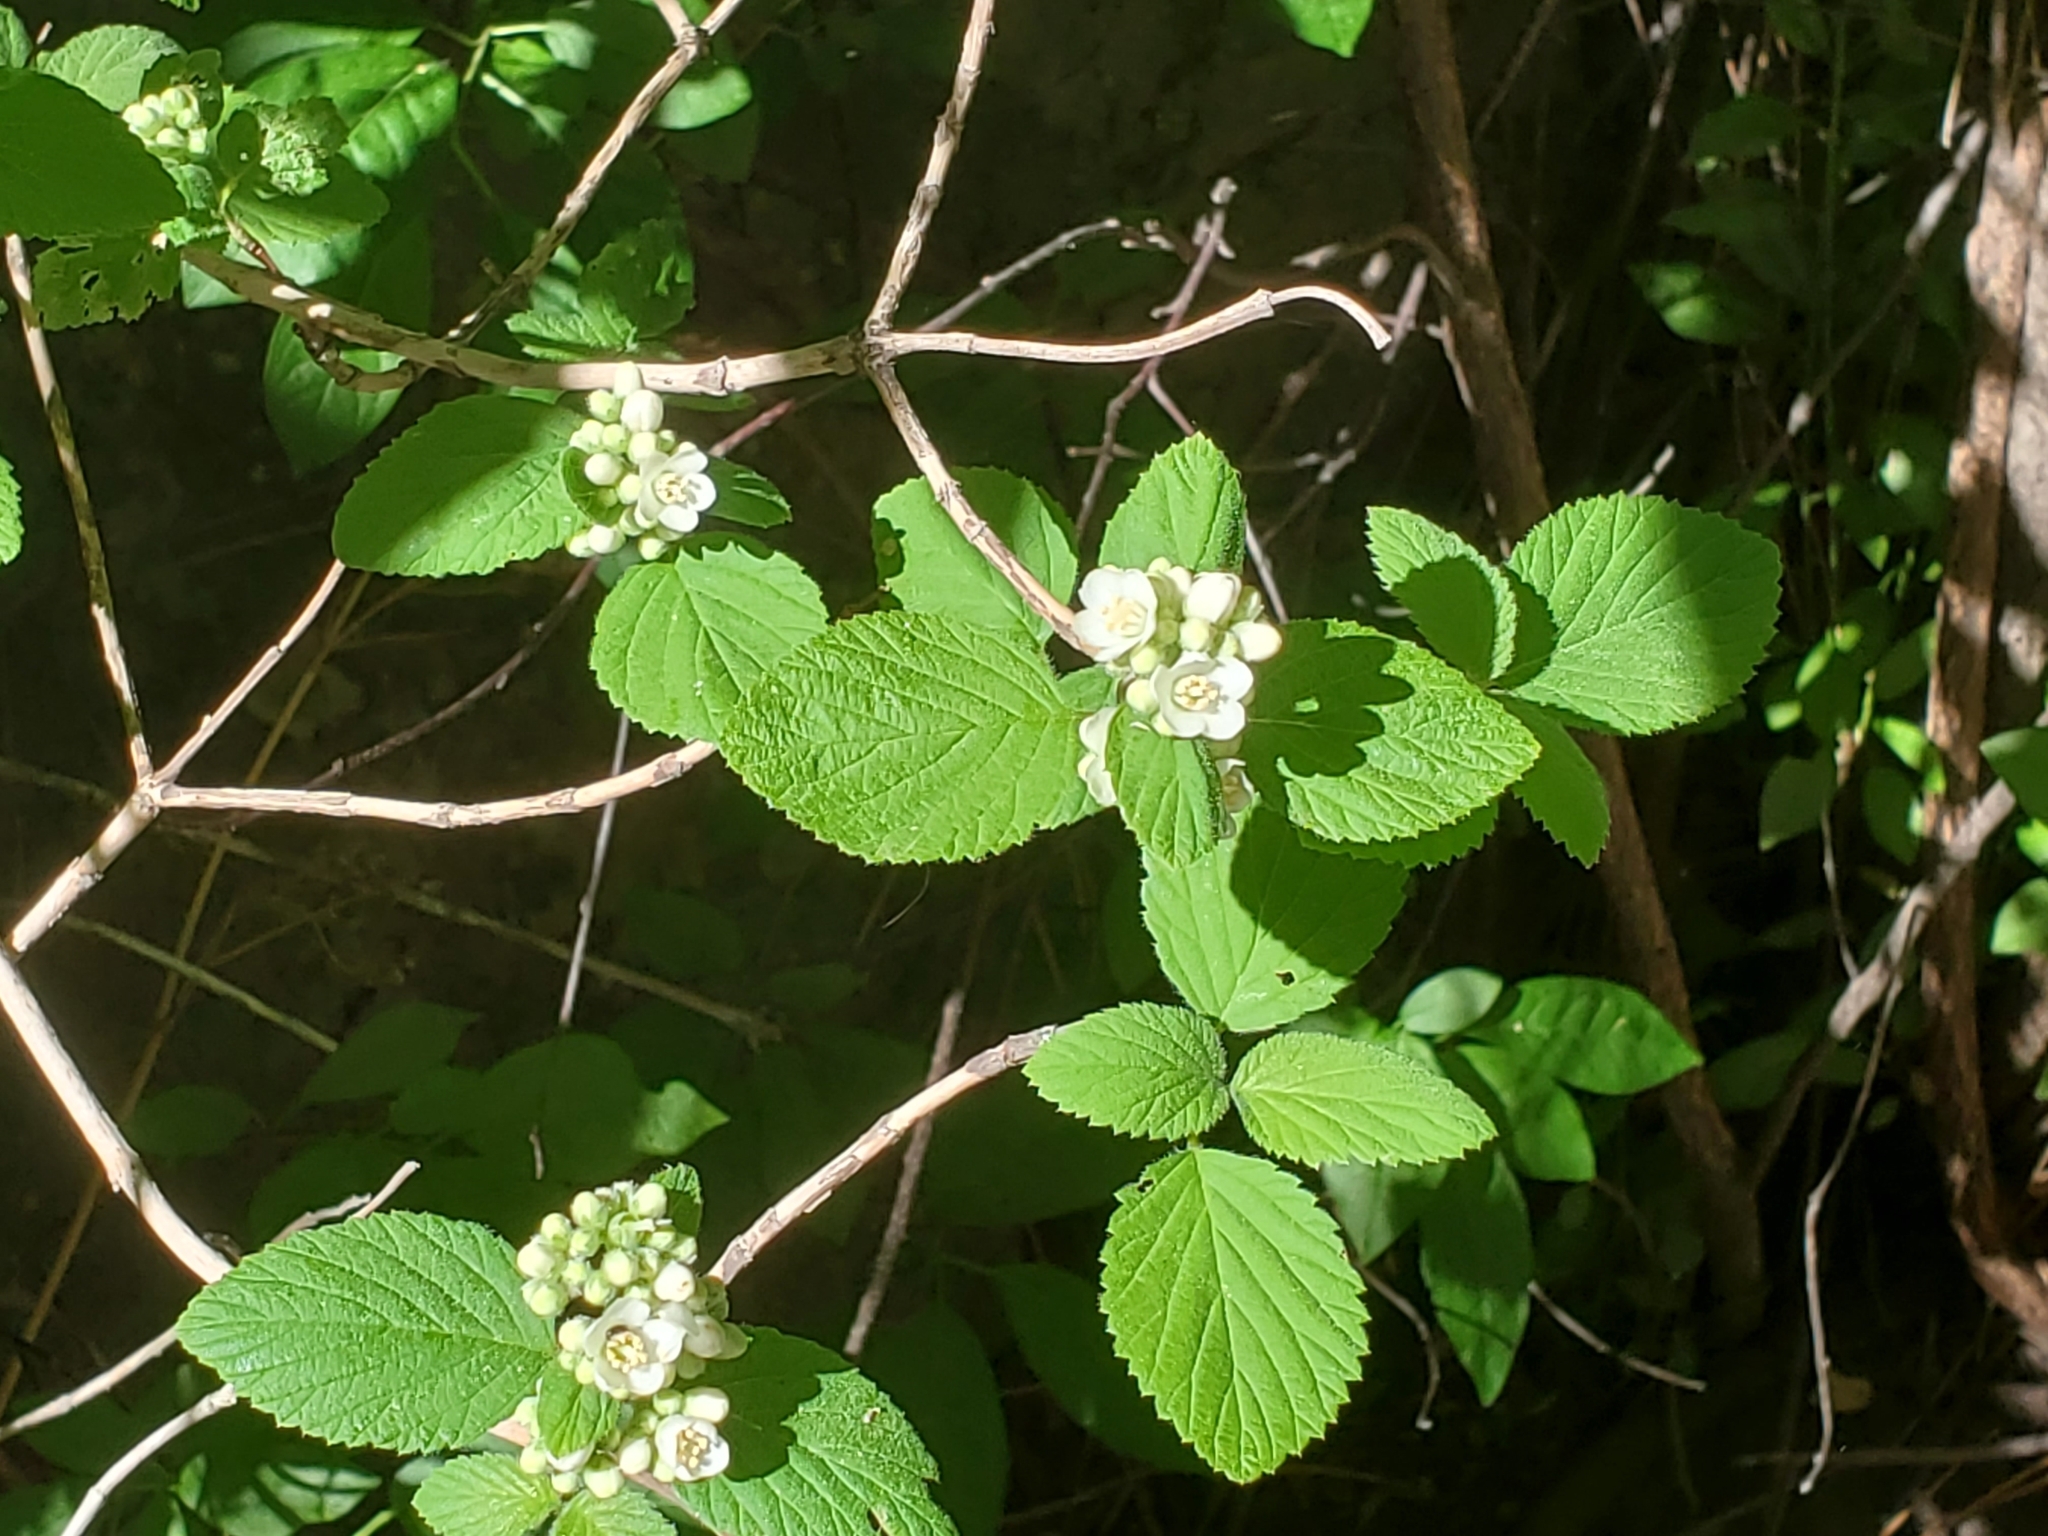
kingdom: Plantae
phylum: Tracheophyta
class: Magnoliopsida
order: Cornales
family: Hydrangeaceae
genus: Jamesia
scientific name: Jamesia americana
